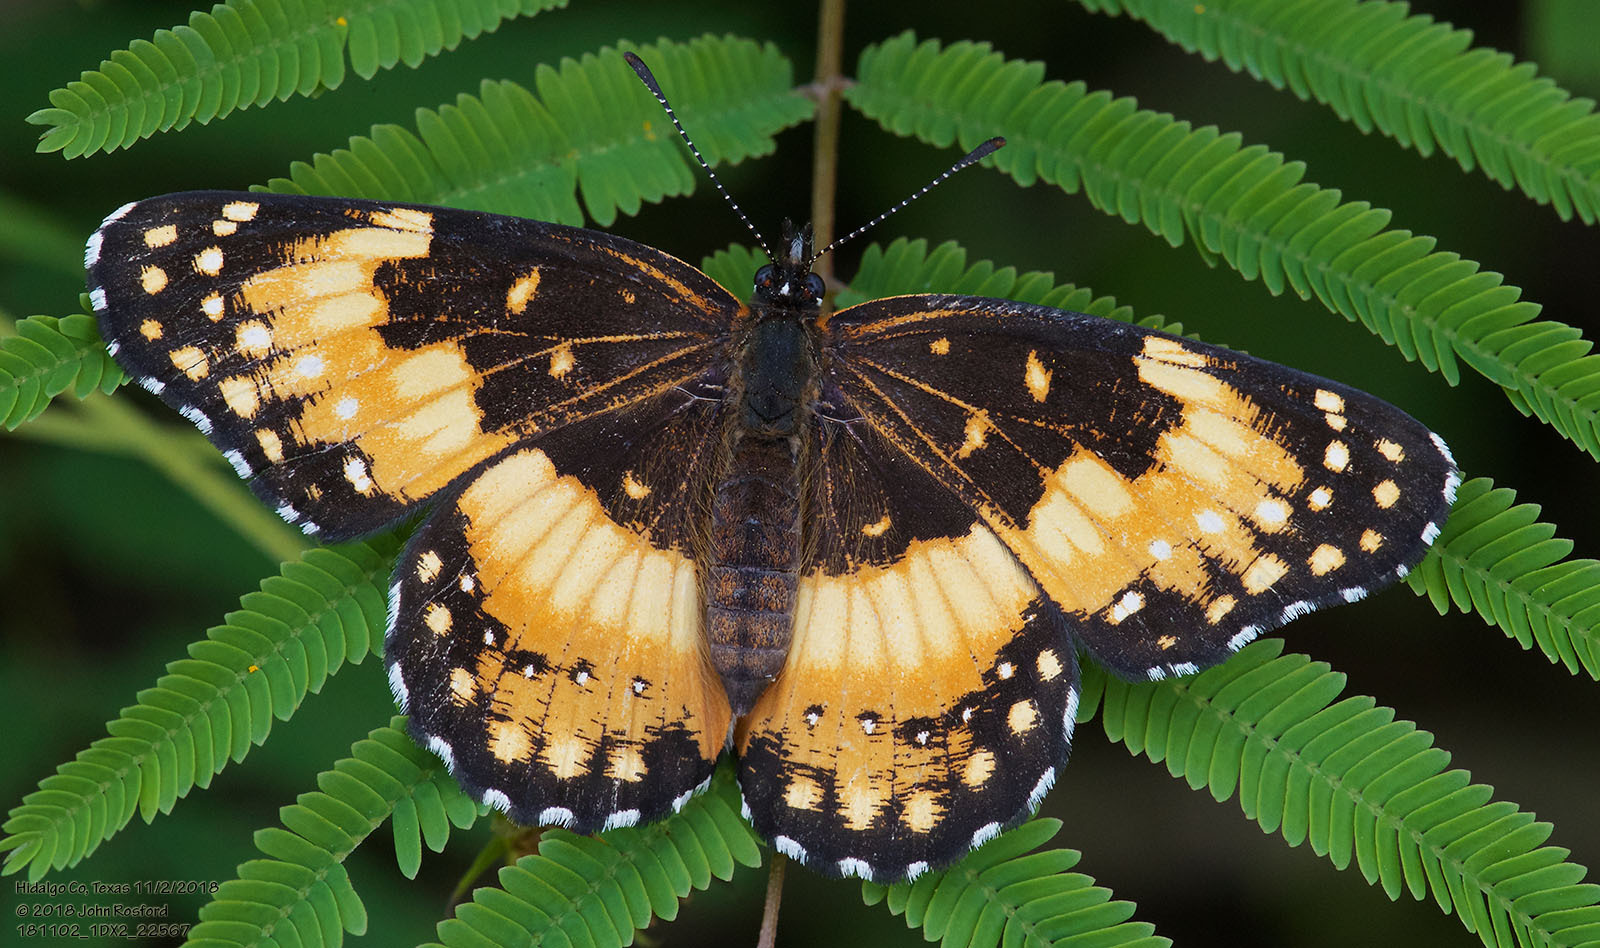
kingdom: Animalia
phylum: Arthropoda
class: Insecta
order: Lepidoptera
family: Nymphalidae
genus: Chlosyne
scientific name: Chlosyne lacinia
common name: Bordered patch
